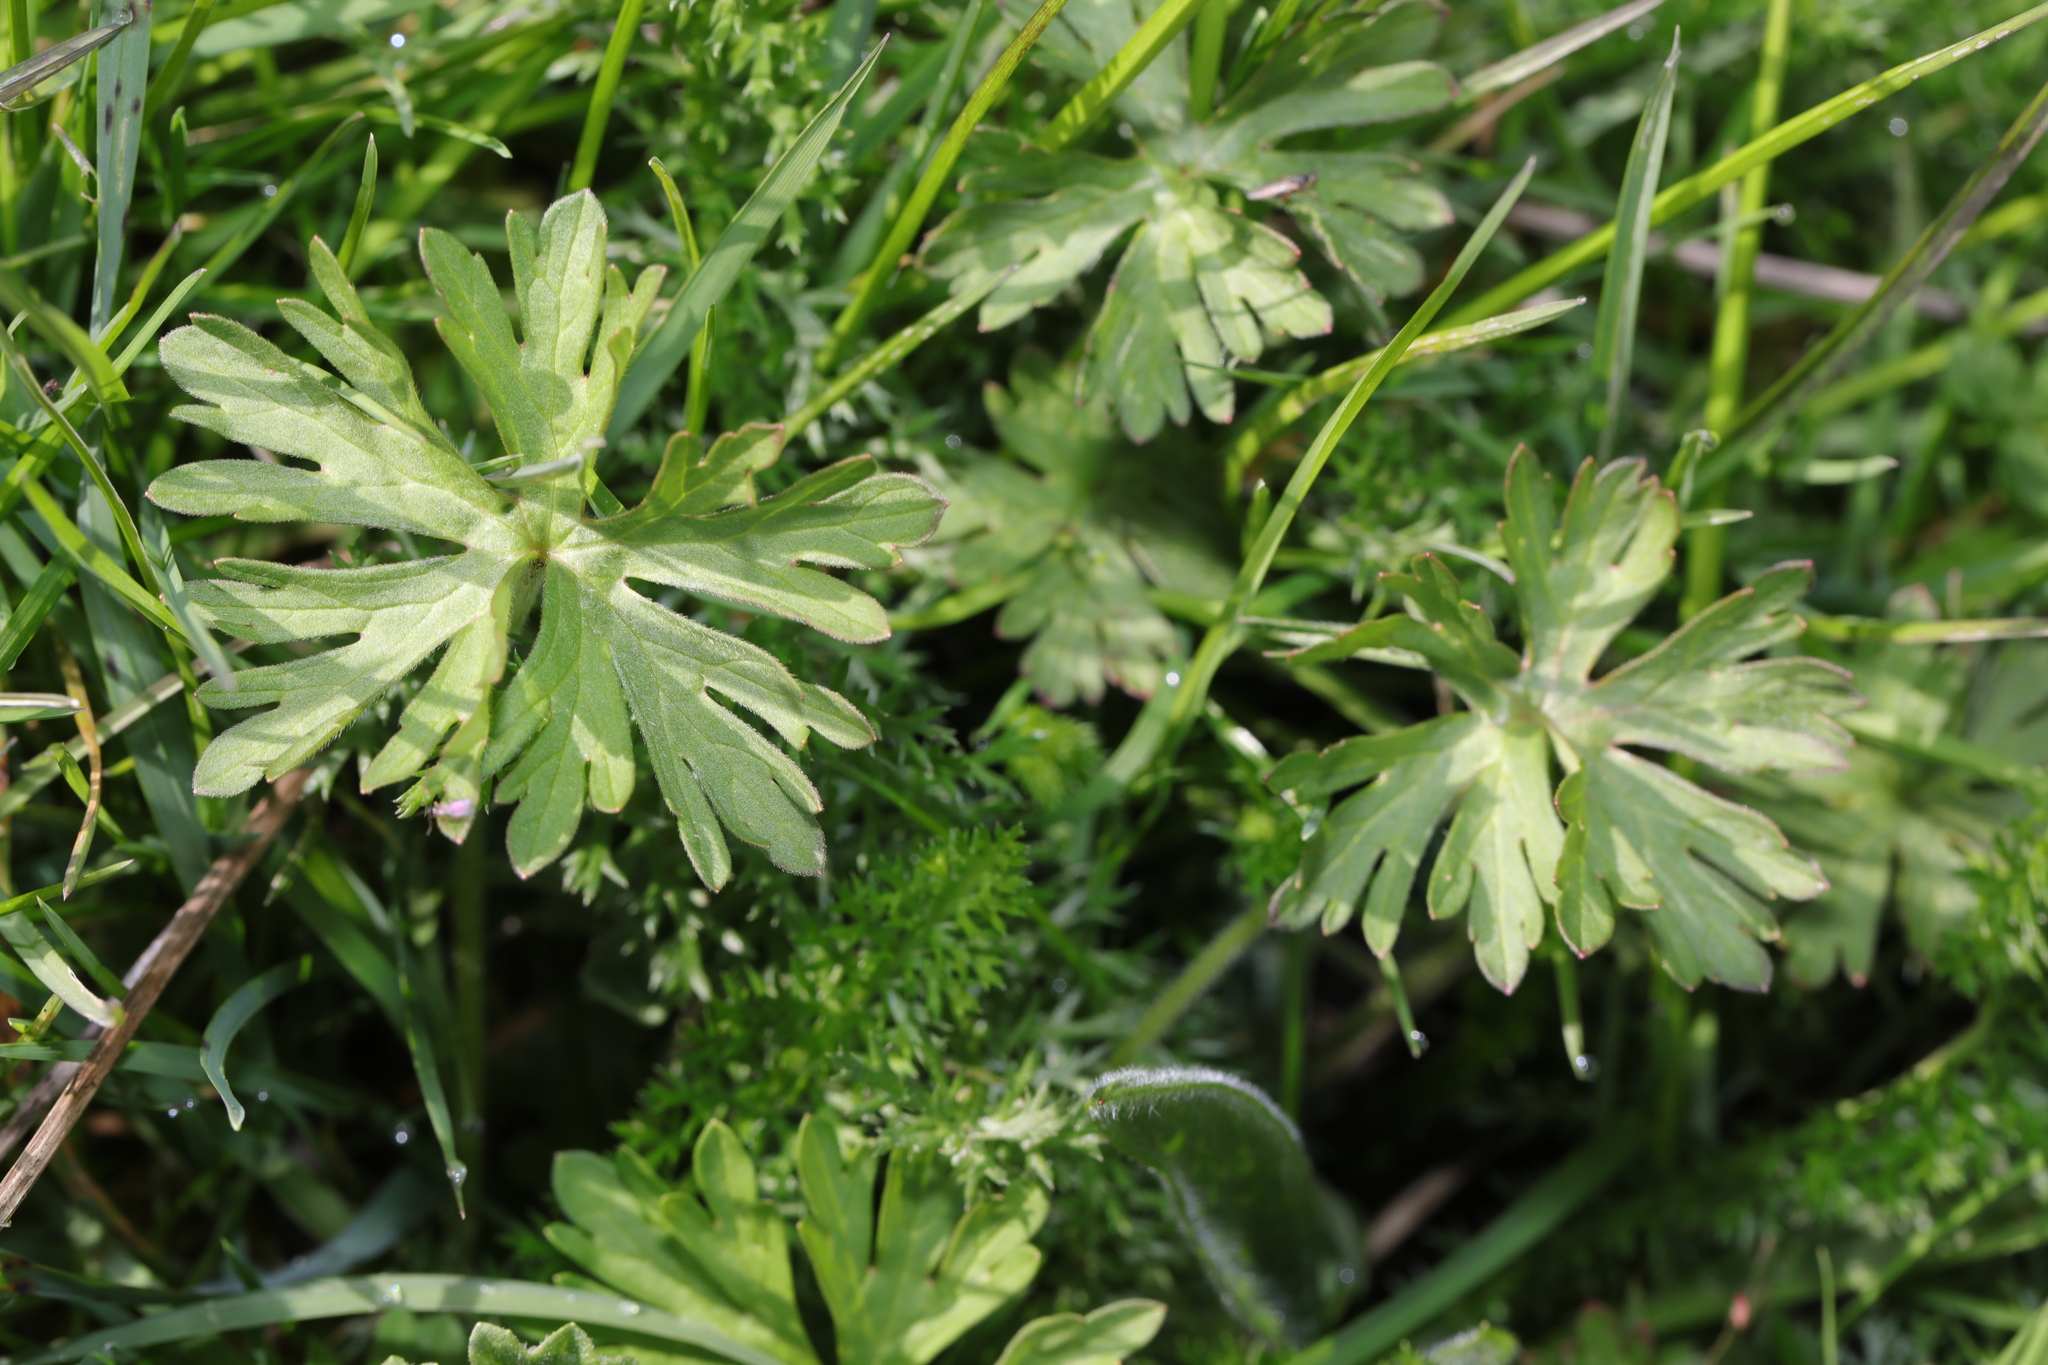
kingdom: Plantae
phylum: Tracheophyta
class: Magnoliopsida
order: Geraniales
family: Geraniaceae
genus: Geranium
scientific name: Geranium dissectum
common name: Cut-leaved crane's-bill
